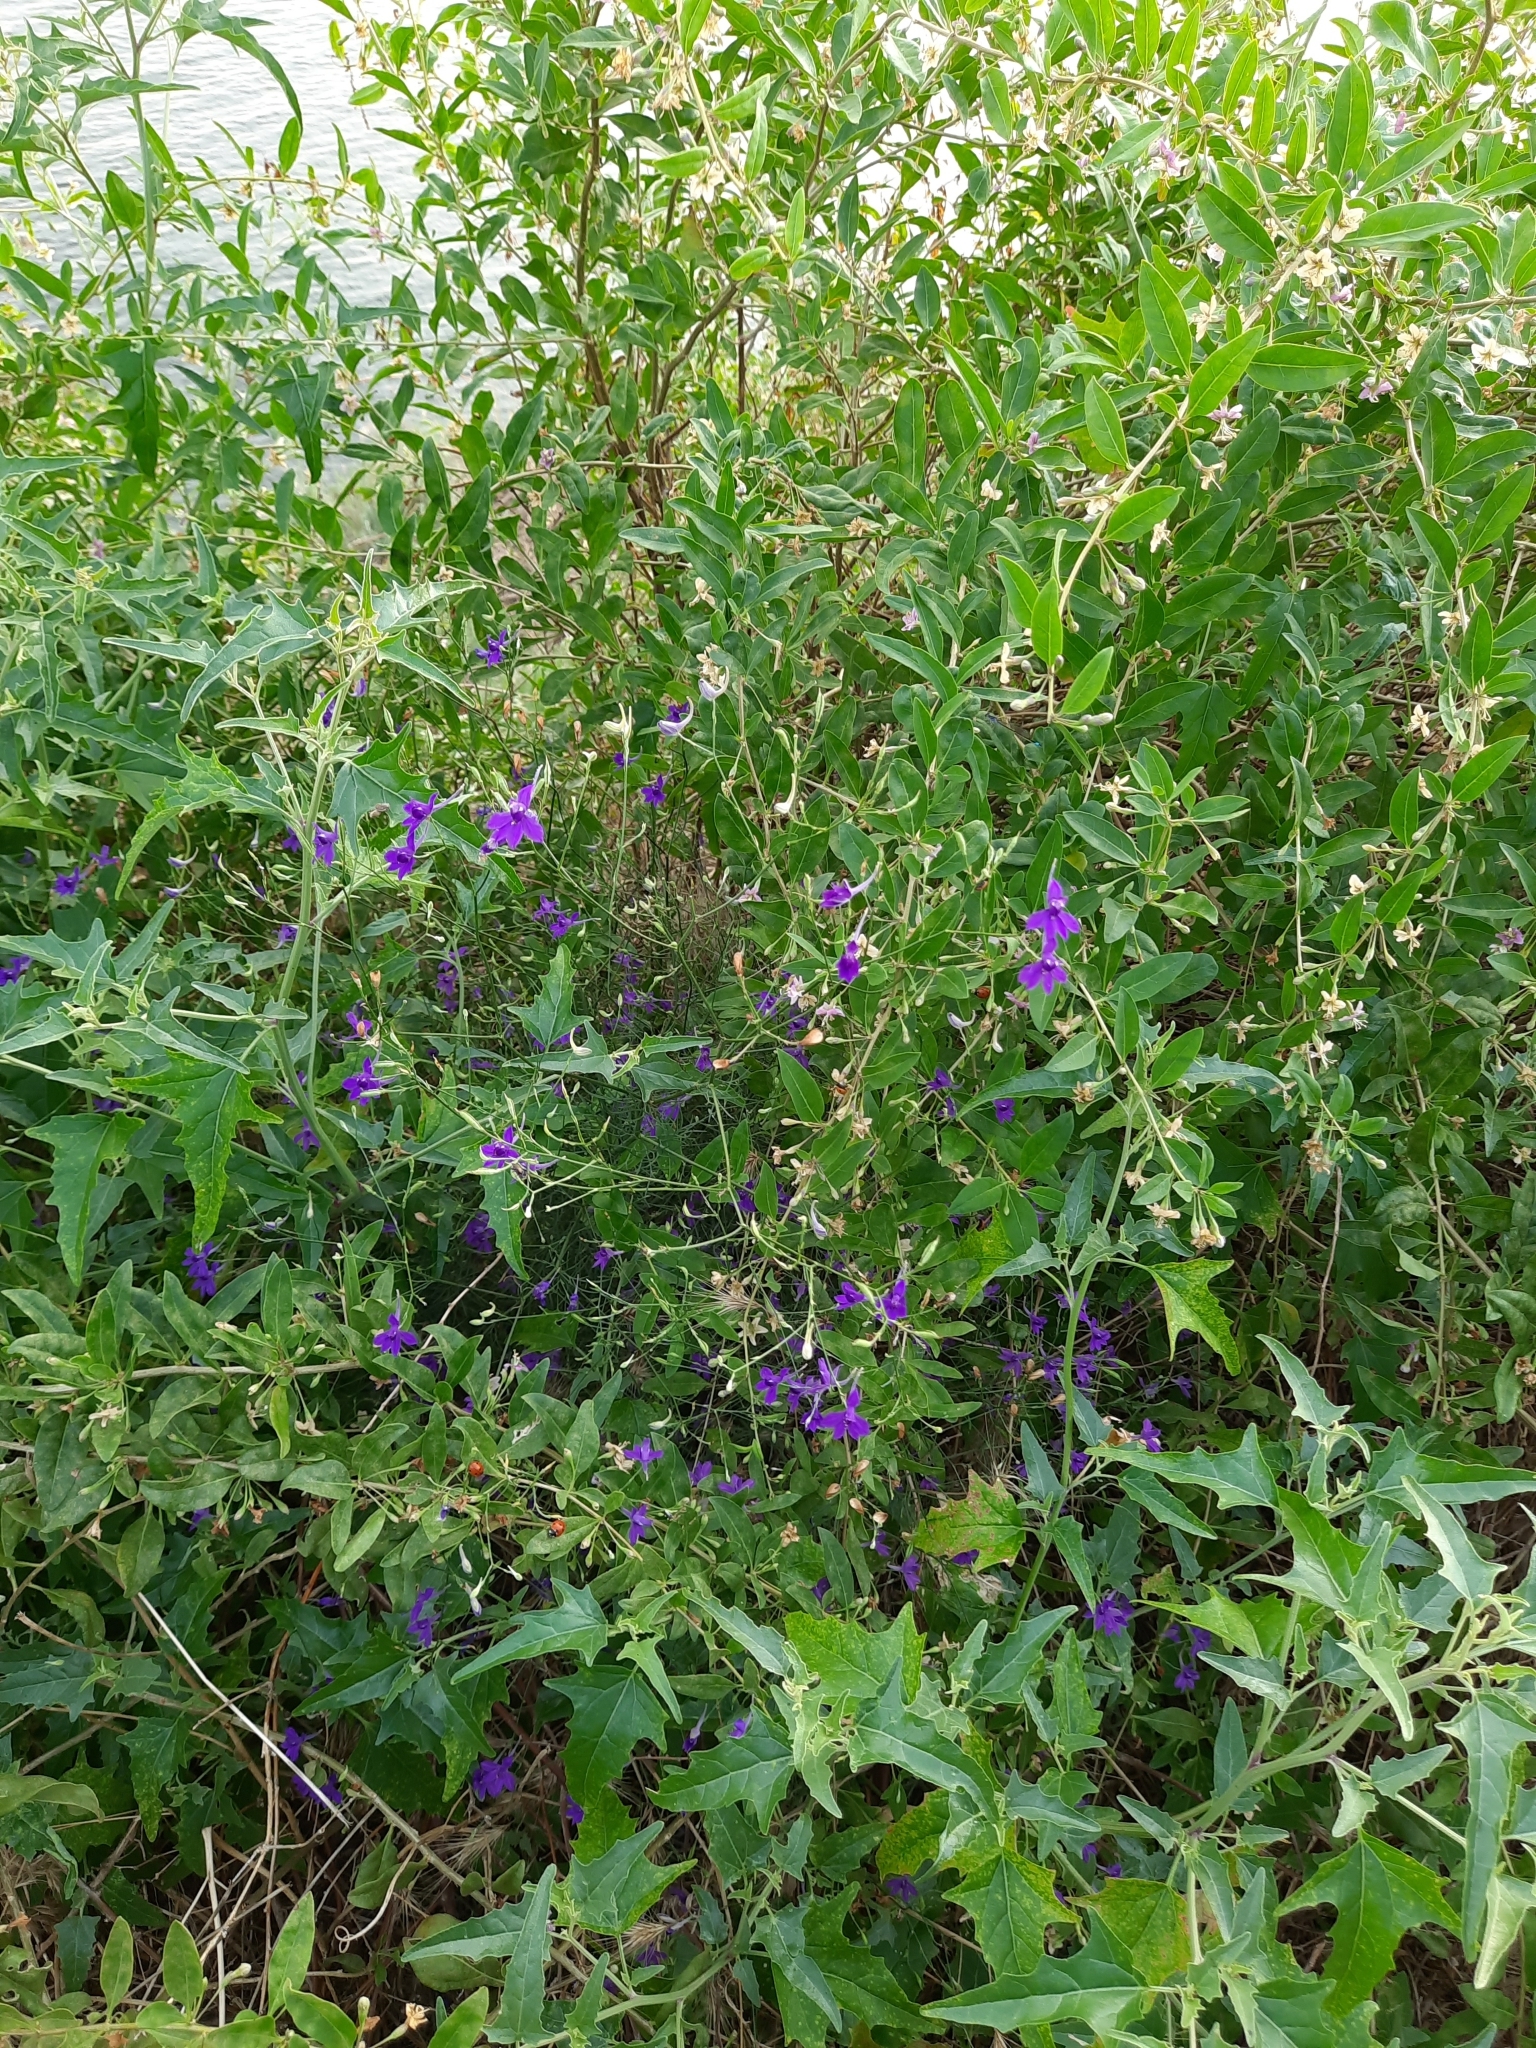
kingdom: Plantae
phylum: Tracheophyta
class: Magnoliopsida
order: Ranunculales
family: Ranunculaceae
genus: Delphinium
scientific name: Delphinium consolida
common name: Branching larkspur
